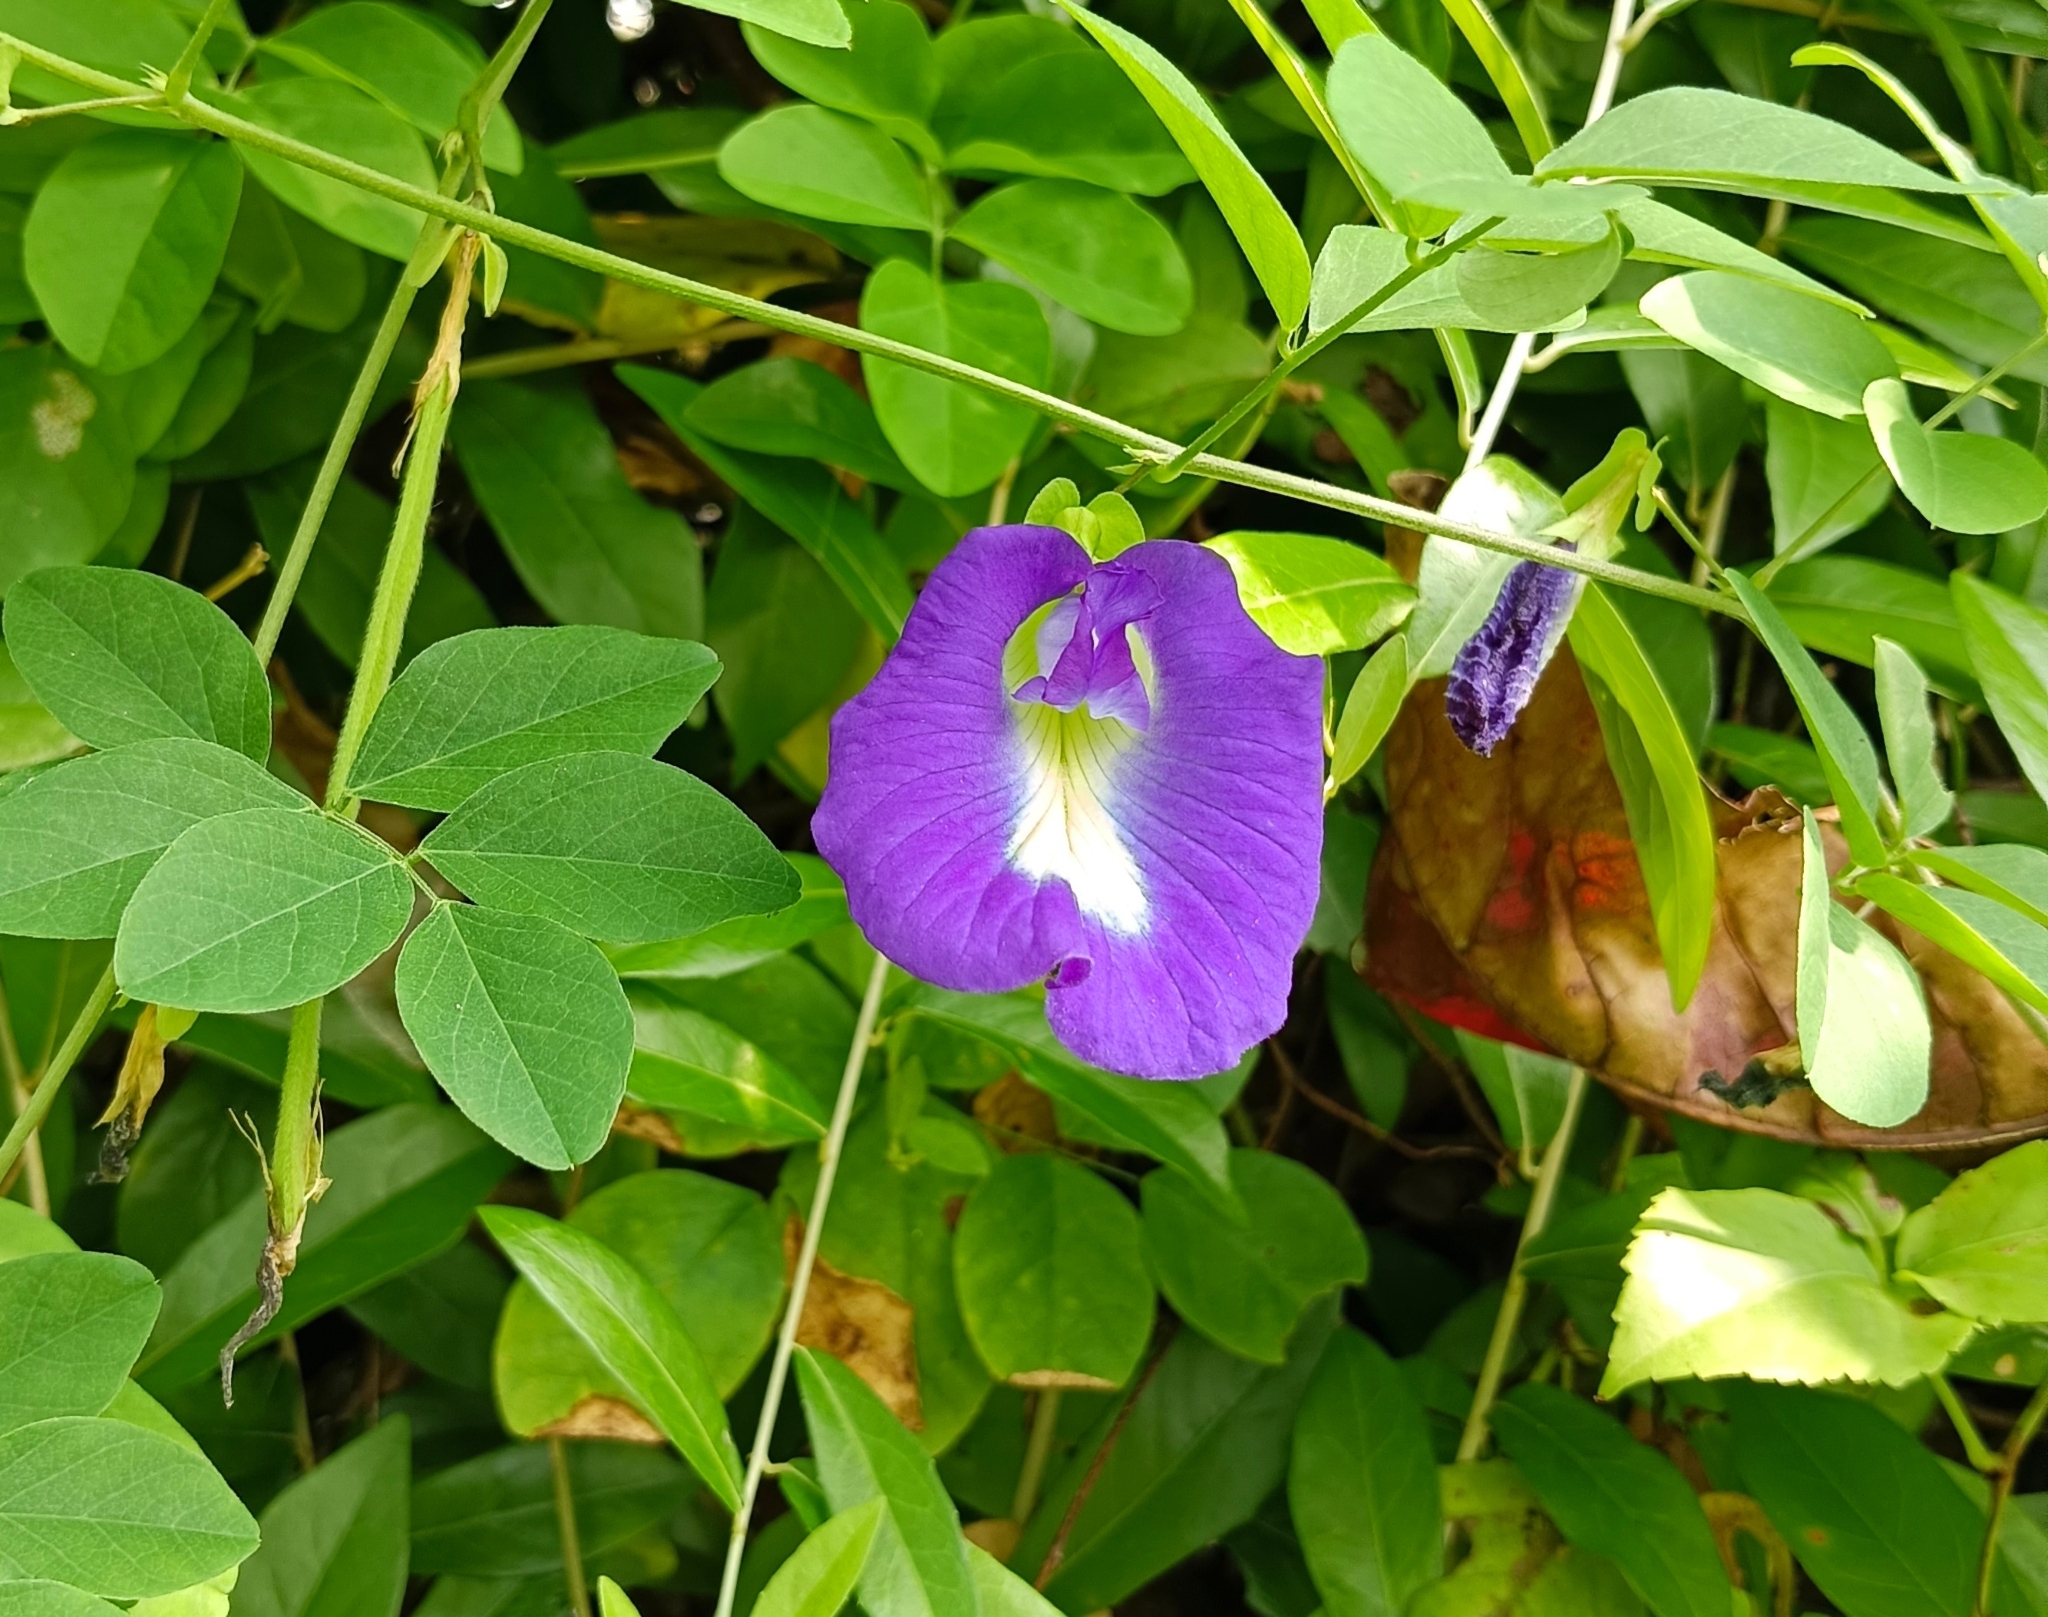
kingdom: Plantae
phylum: Tracheophyta
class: Magnoliopsida
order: Fabales
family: Fabaceae
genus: Clitoria
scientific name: Clitoria ternatea
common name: Asian pigeonwings
